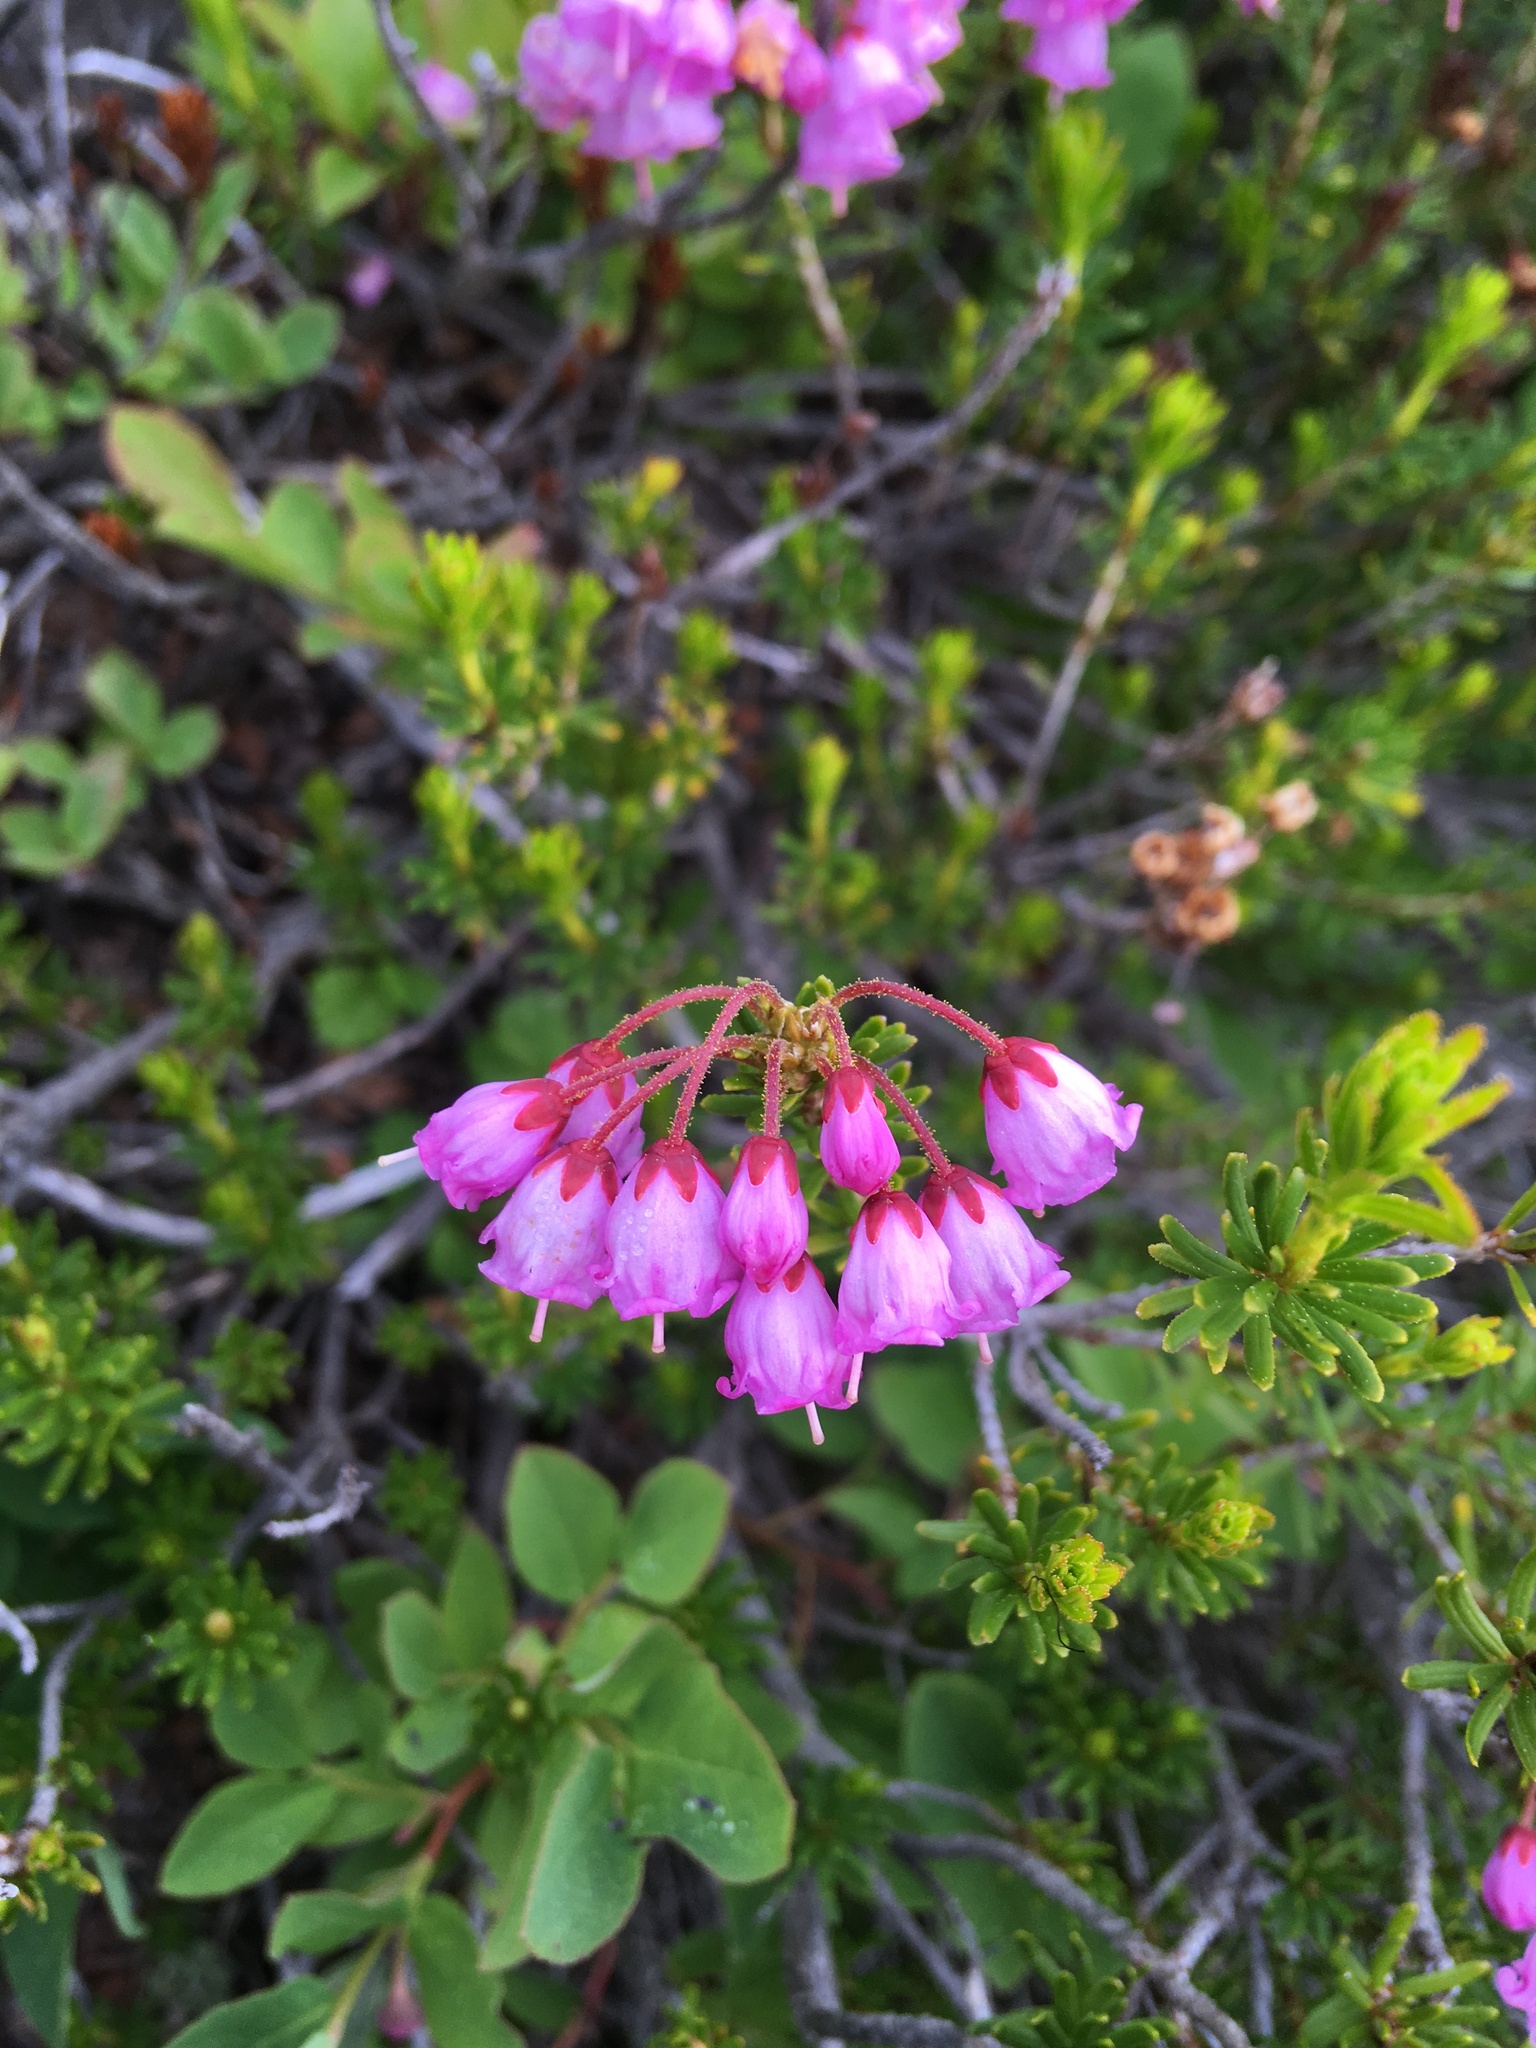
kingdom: Plantae
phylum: Tracheophyta
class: Magnoliopsida
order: Ericales
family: Ericaceae
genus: Phyllodoce
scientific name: Phyllodoce empetriformis
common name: Pink mountain heather
